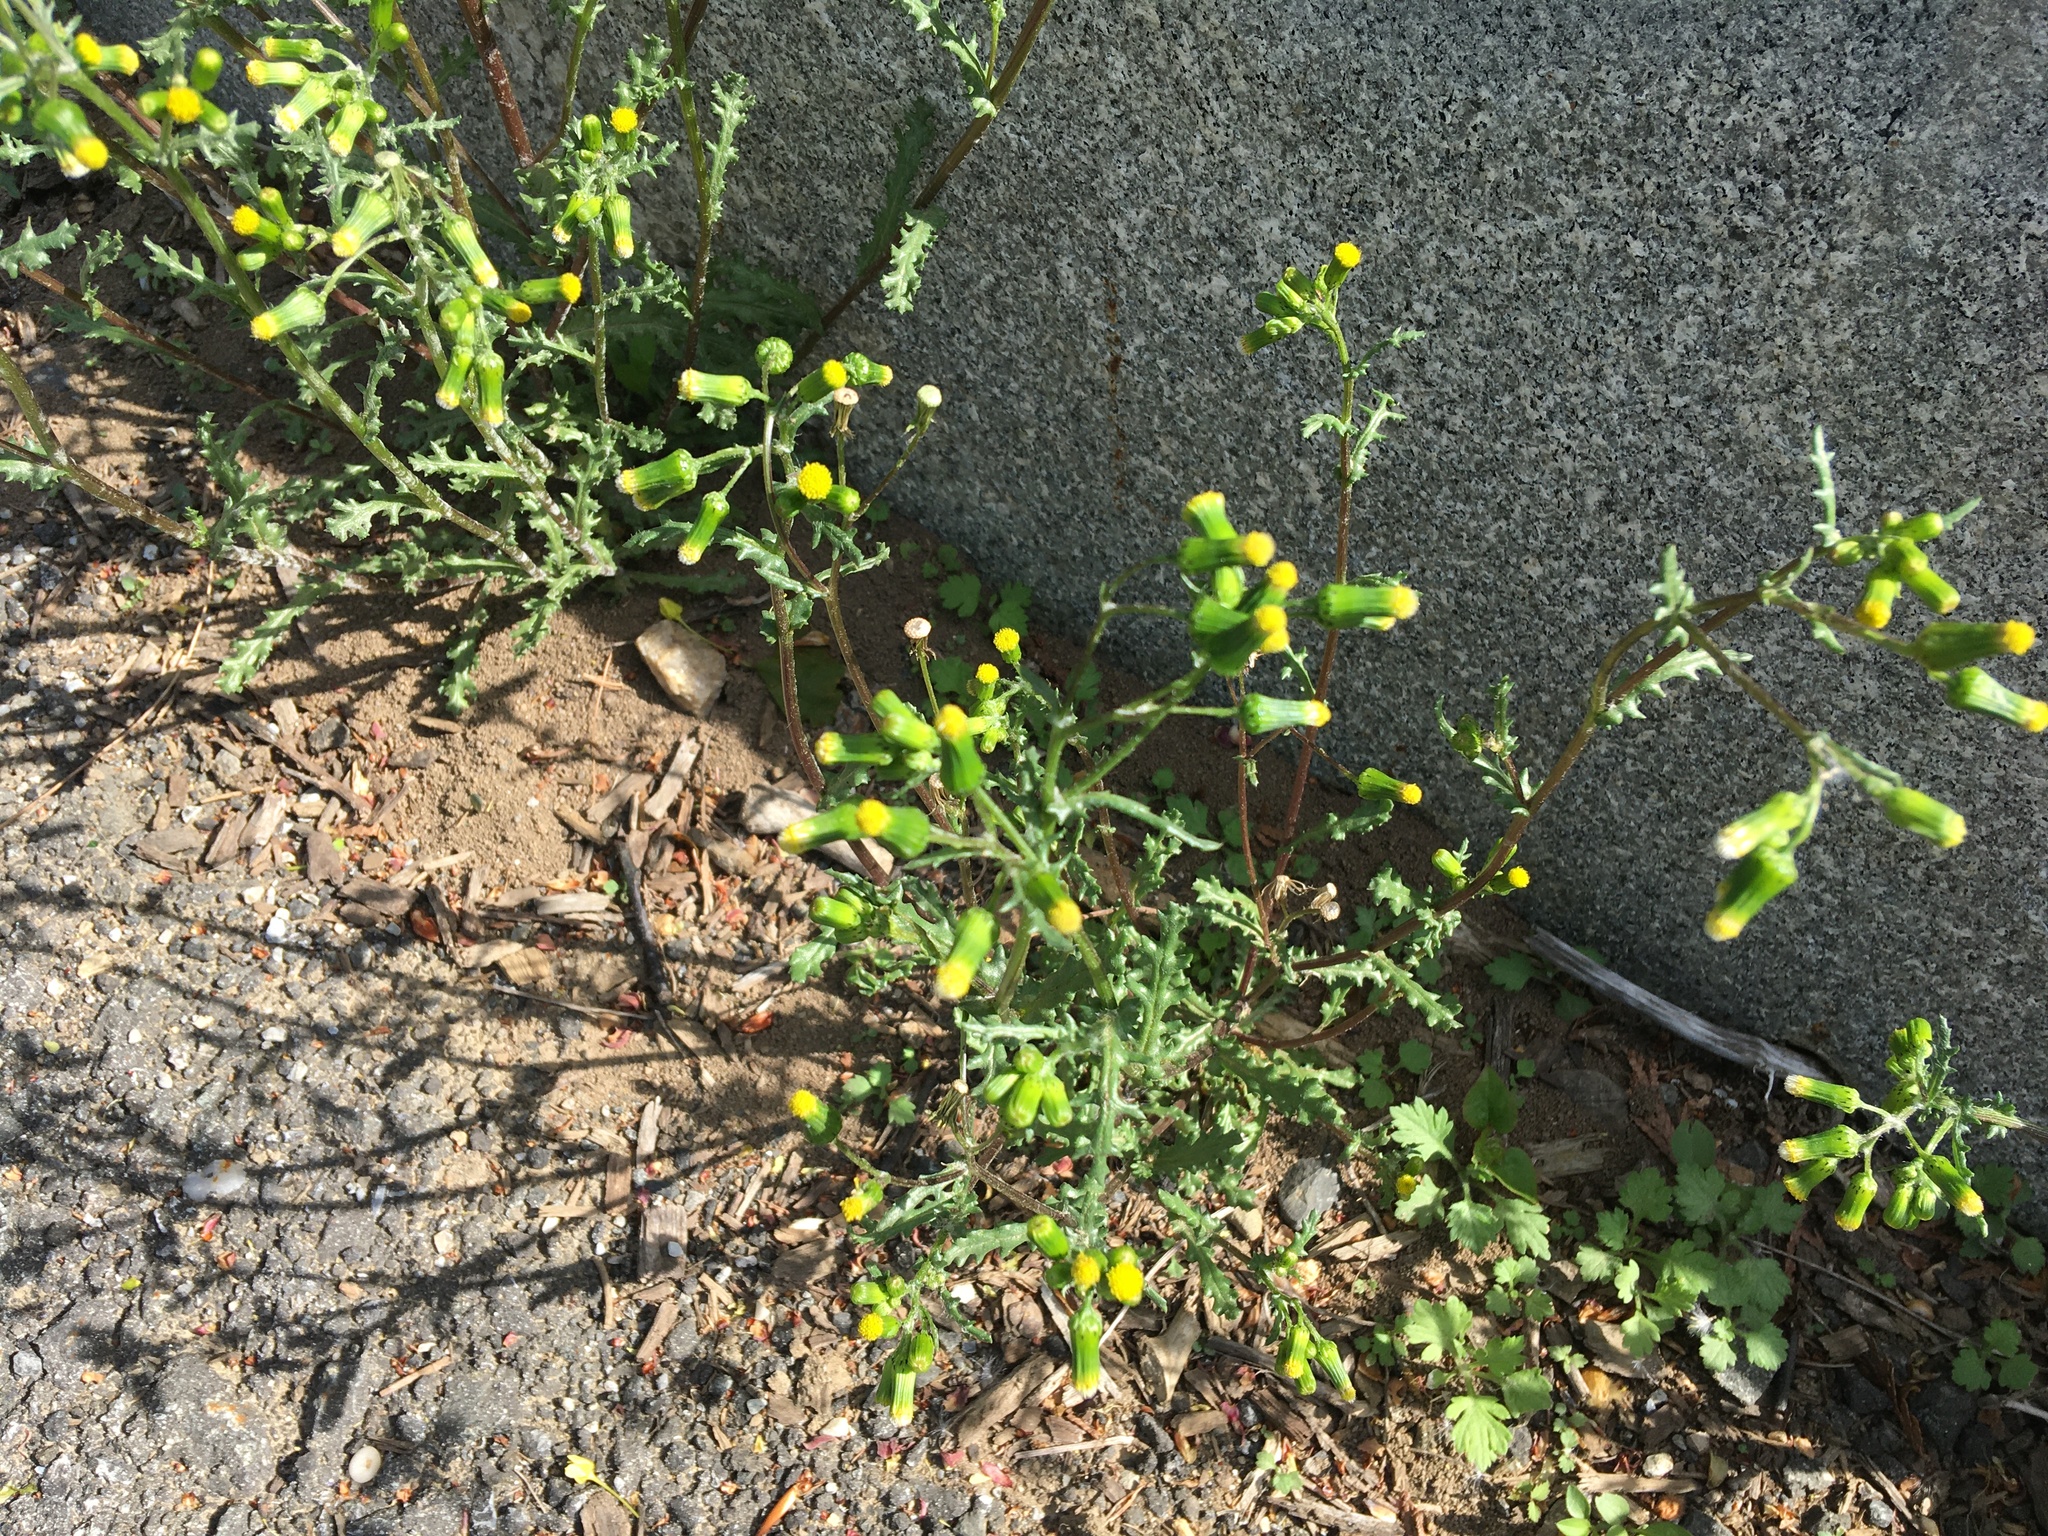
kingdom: Plantae
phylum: Tracheophyta
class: Magnoliopsida
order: Asterales
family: Asteraceae
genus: Senecio
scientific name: Senecio vulgaris
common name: Old-man-in-the-spring
